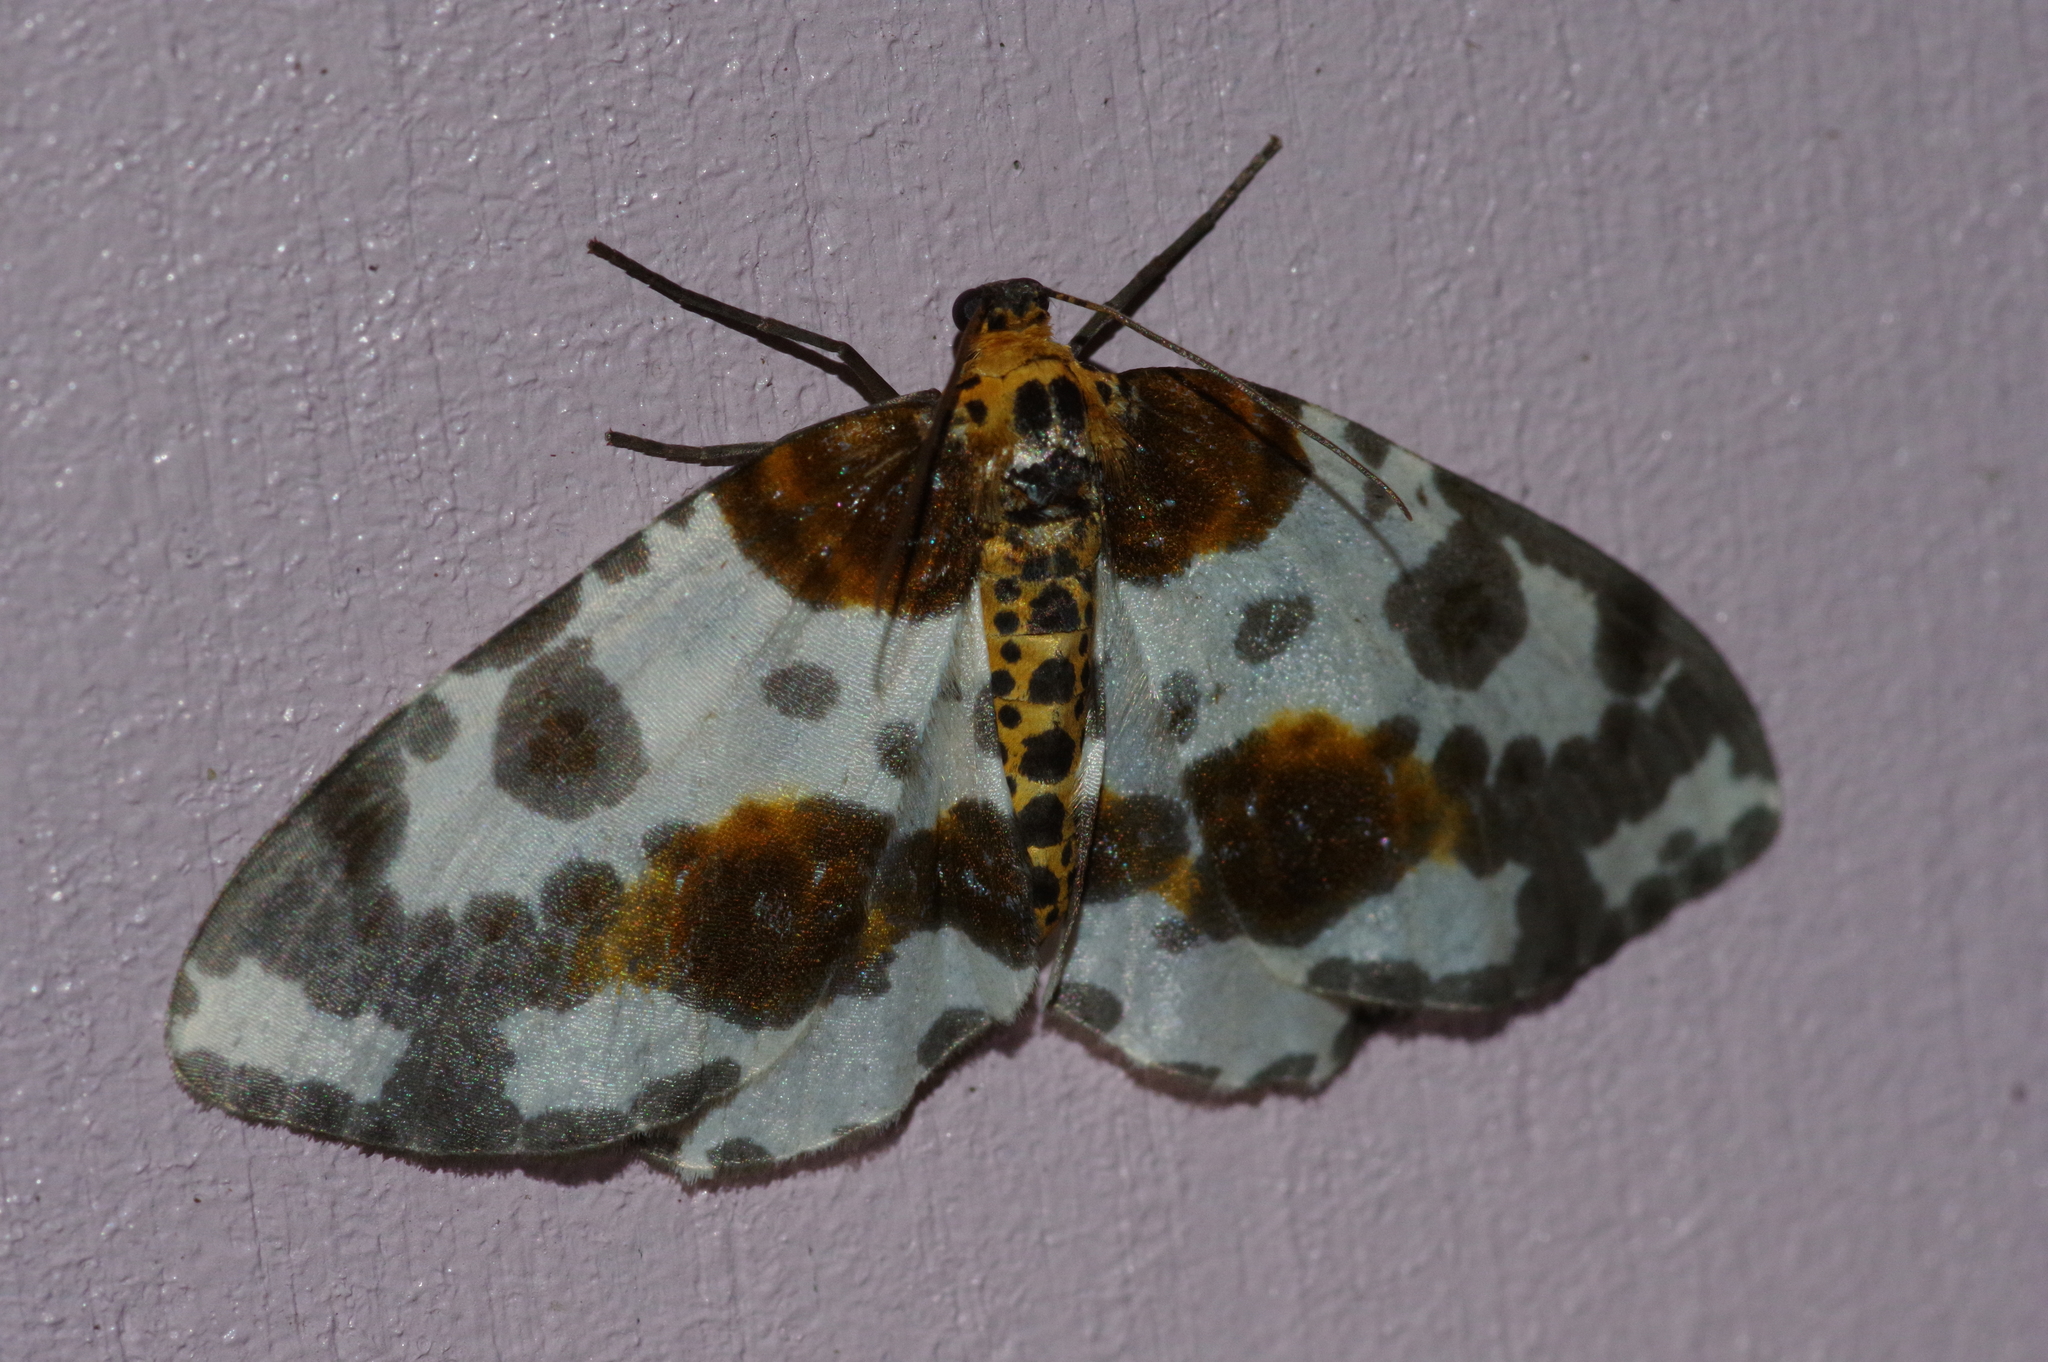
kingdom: Animalia
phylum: Arthropoda
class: Insecta
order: Lepidoptera
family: Geometridae
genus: Abraxas
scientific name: Abraxas niphonibia
